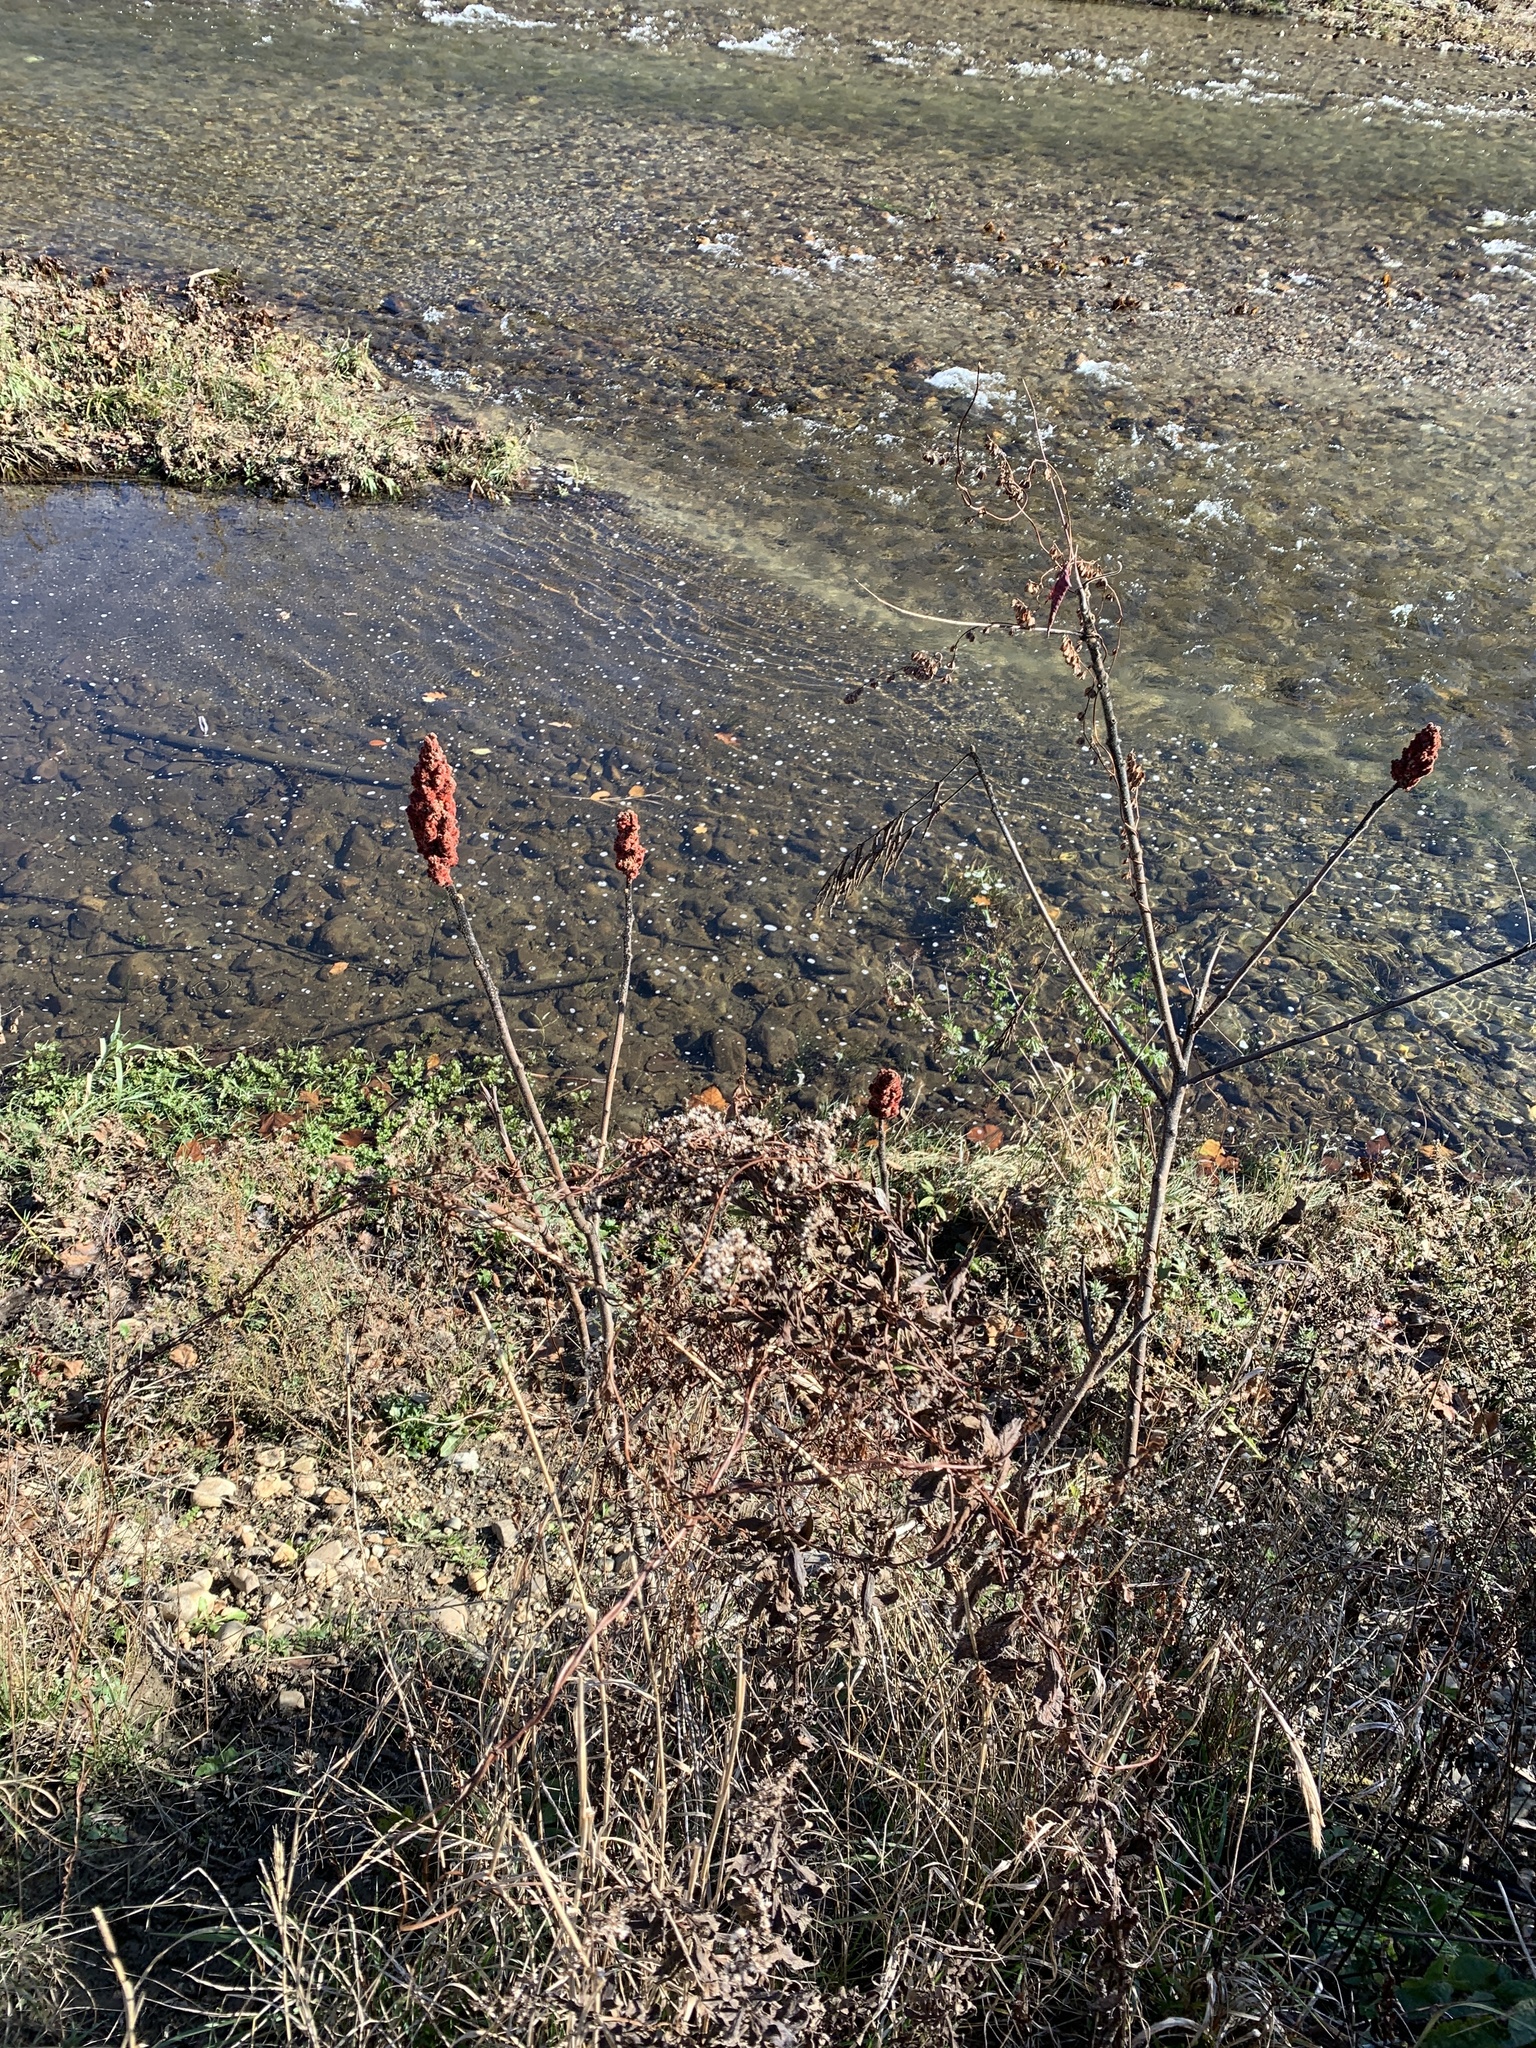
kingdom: Plantae
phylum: Tracheophyta
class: Magnoliopsida
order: Sapindales
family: Anacardiaceae
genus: Rhus
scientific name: Rhus typhina
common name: Staghorn sumac
